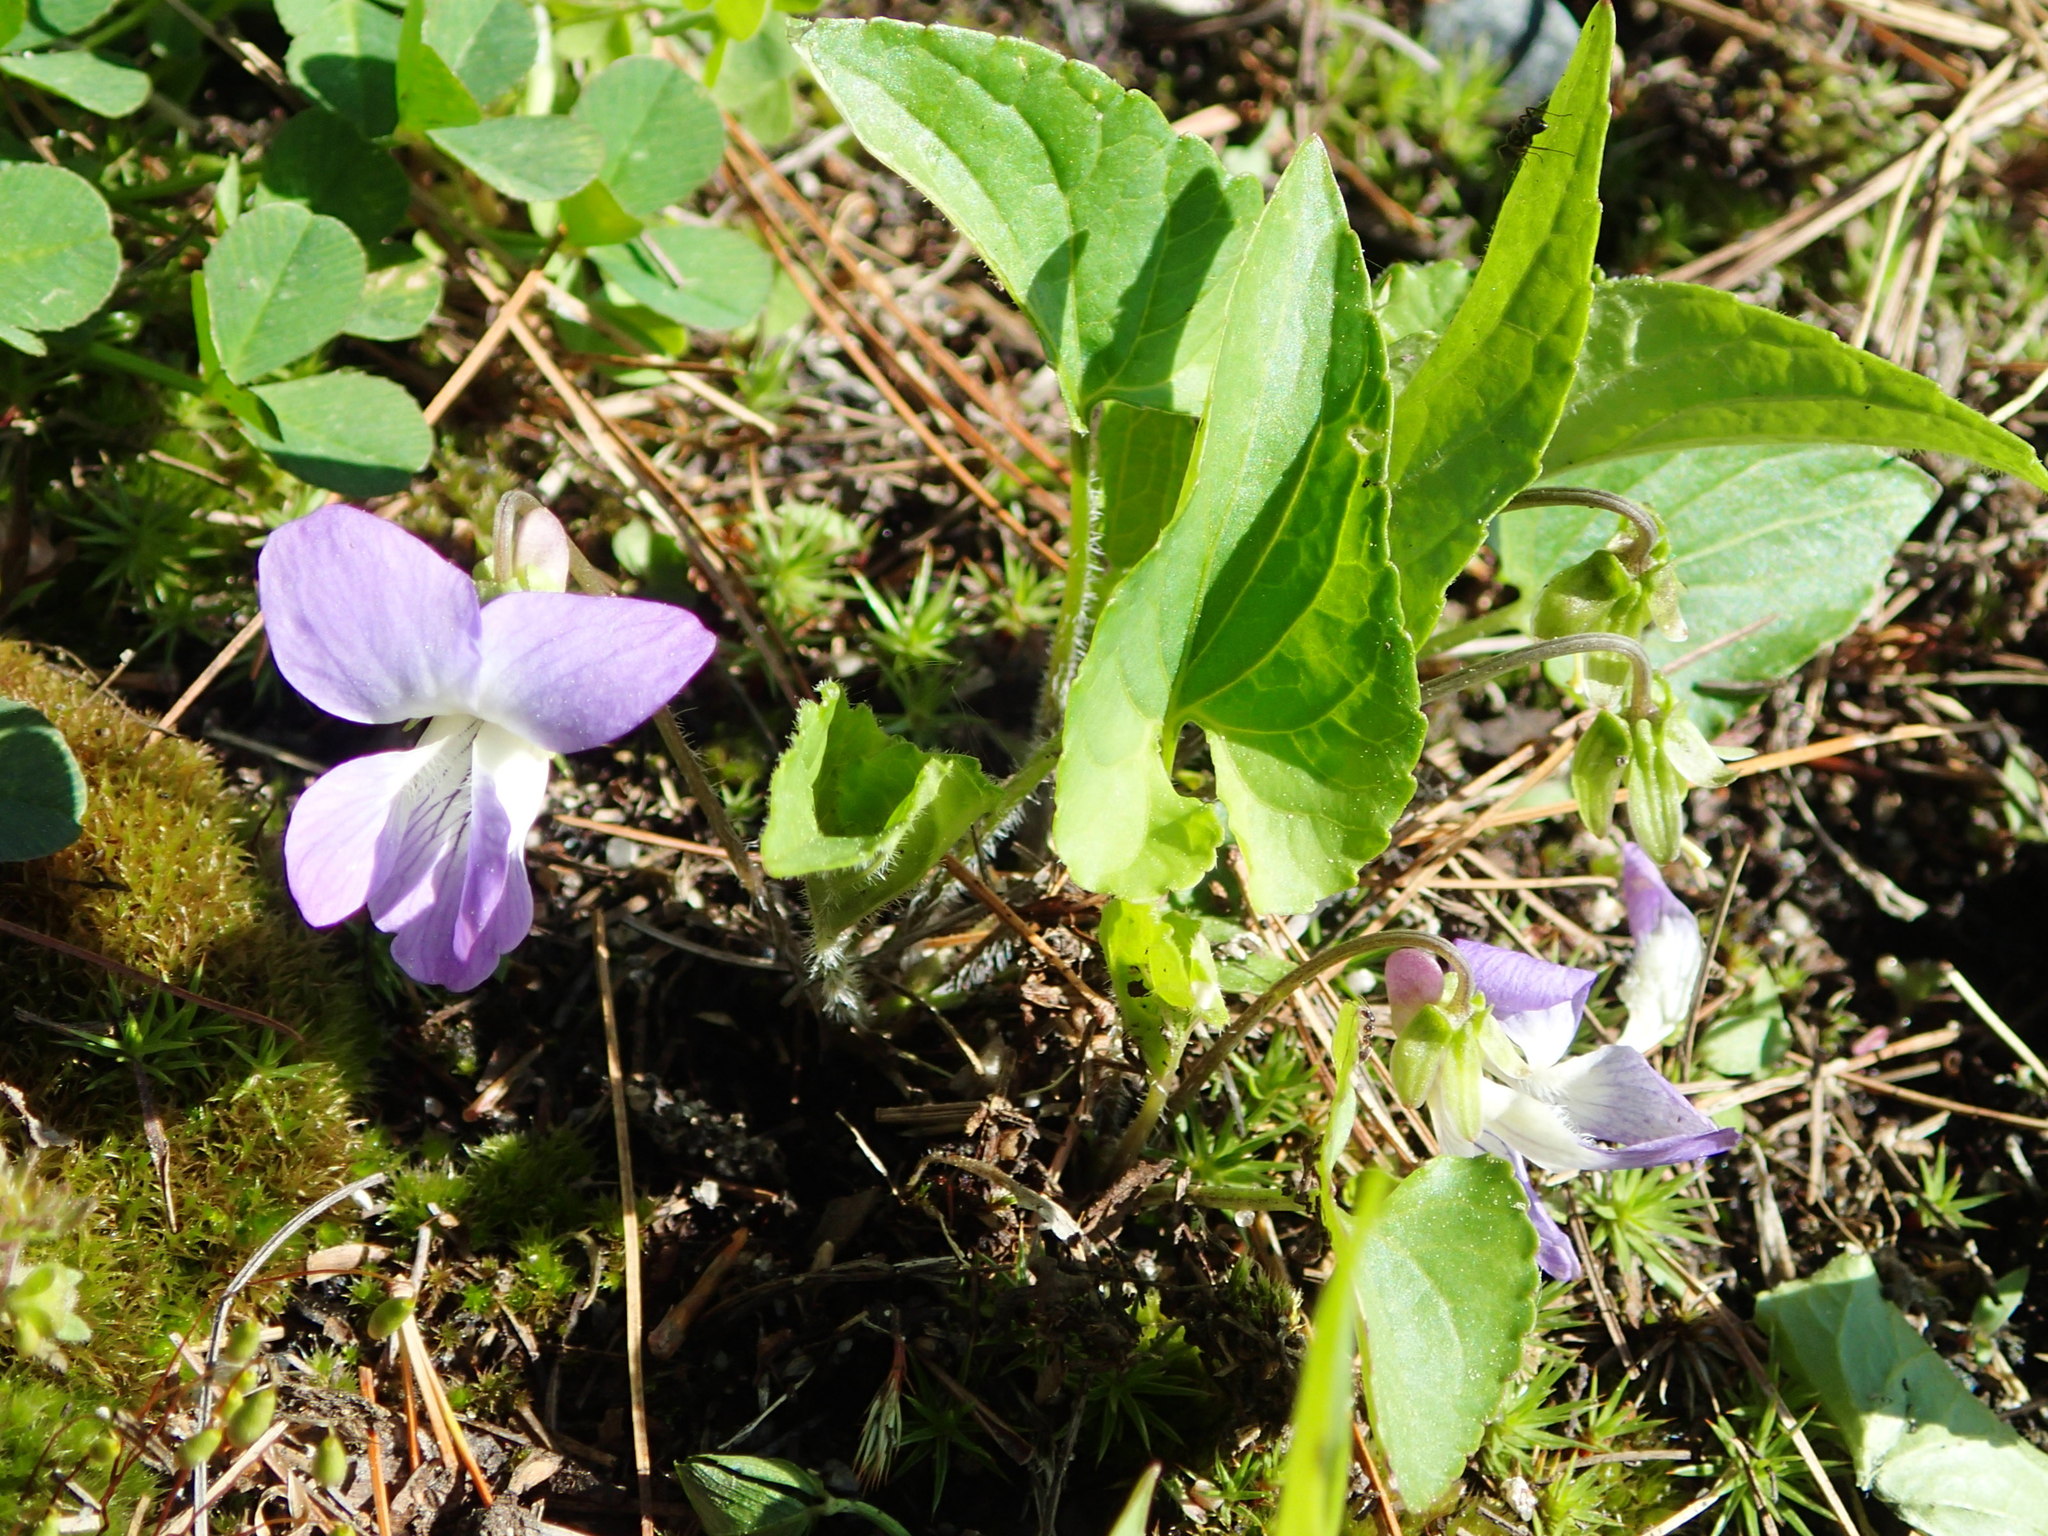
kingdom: Plantae
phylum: Tracheophyta
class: Magnoliopsida
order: Malpighiales
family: Violaceae
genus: Viola
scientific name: Viola novae-angliae
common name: New england blue violet
